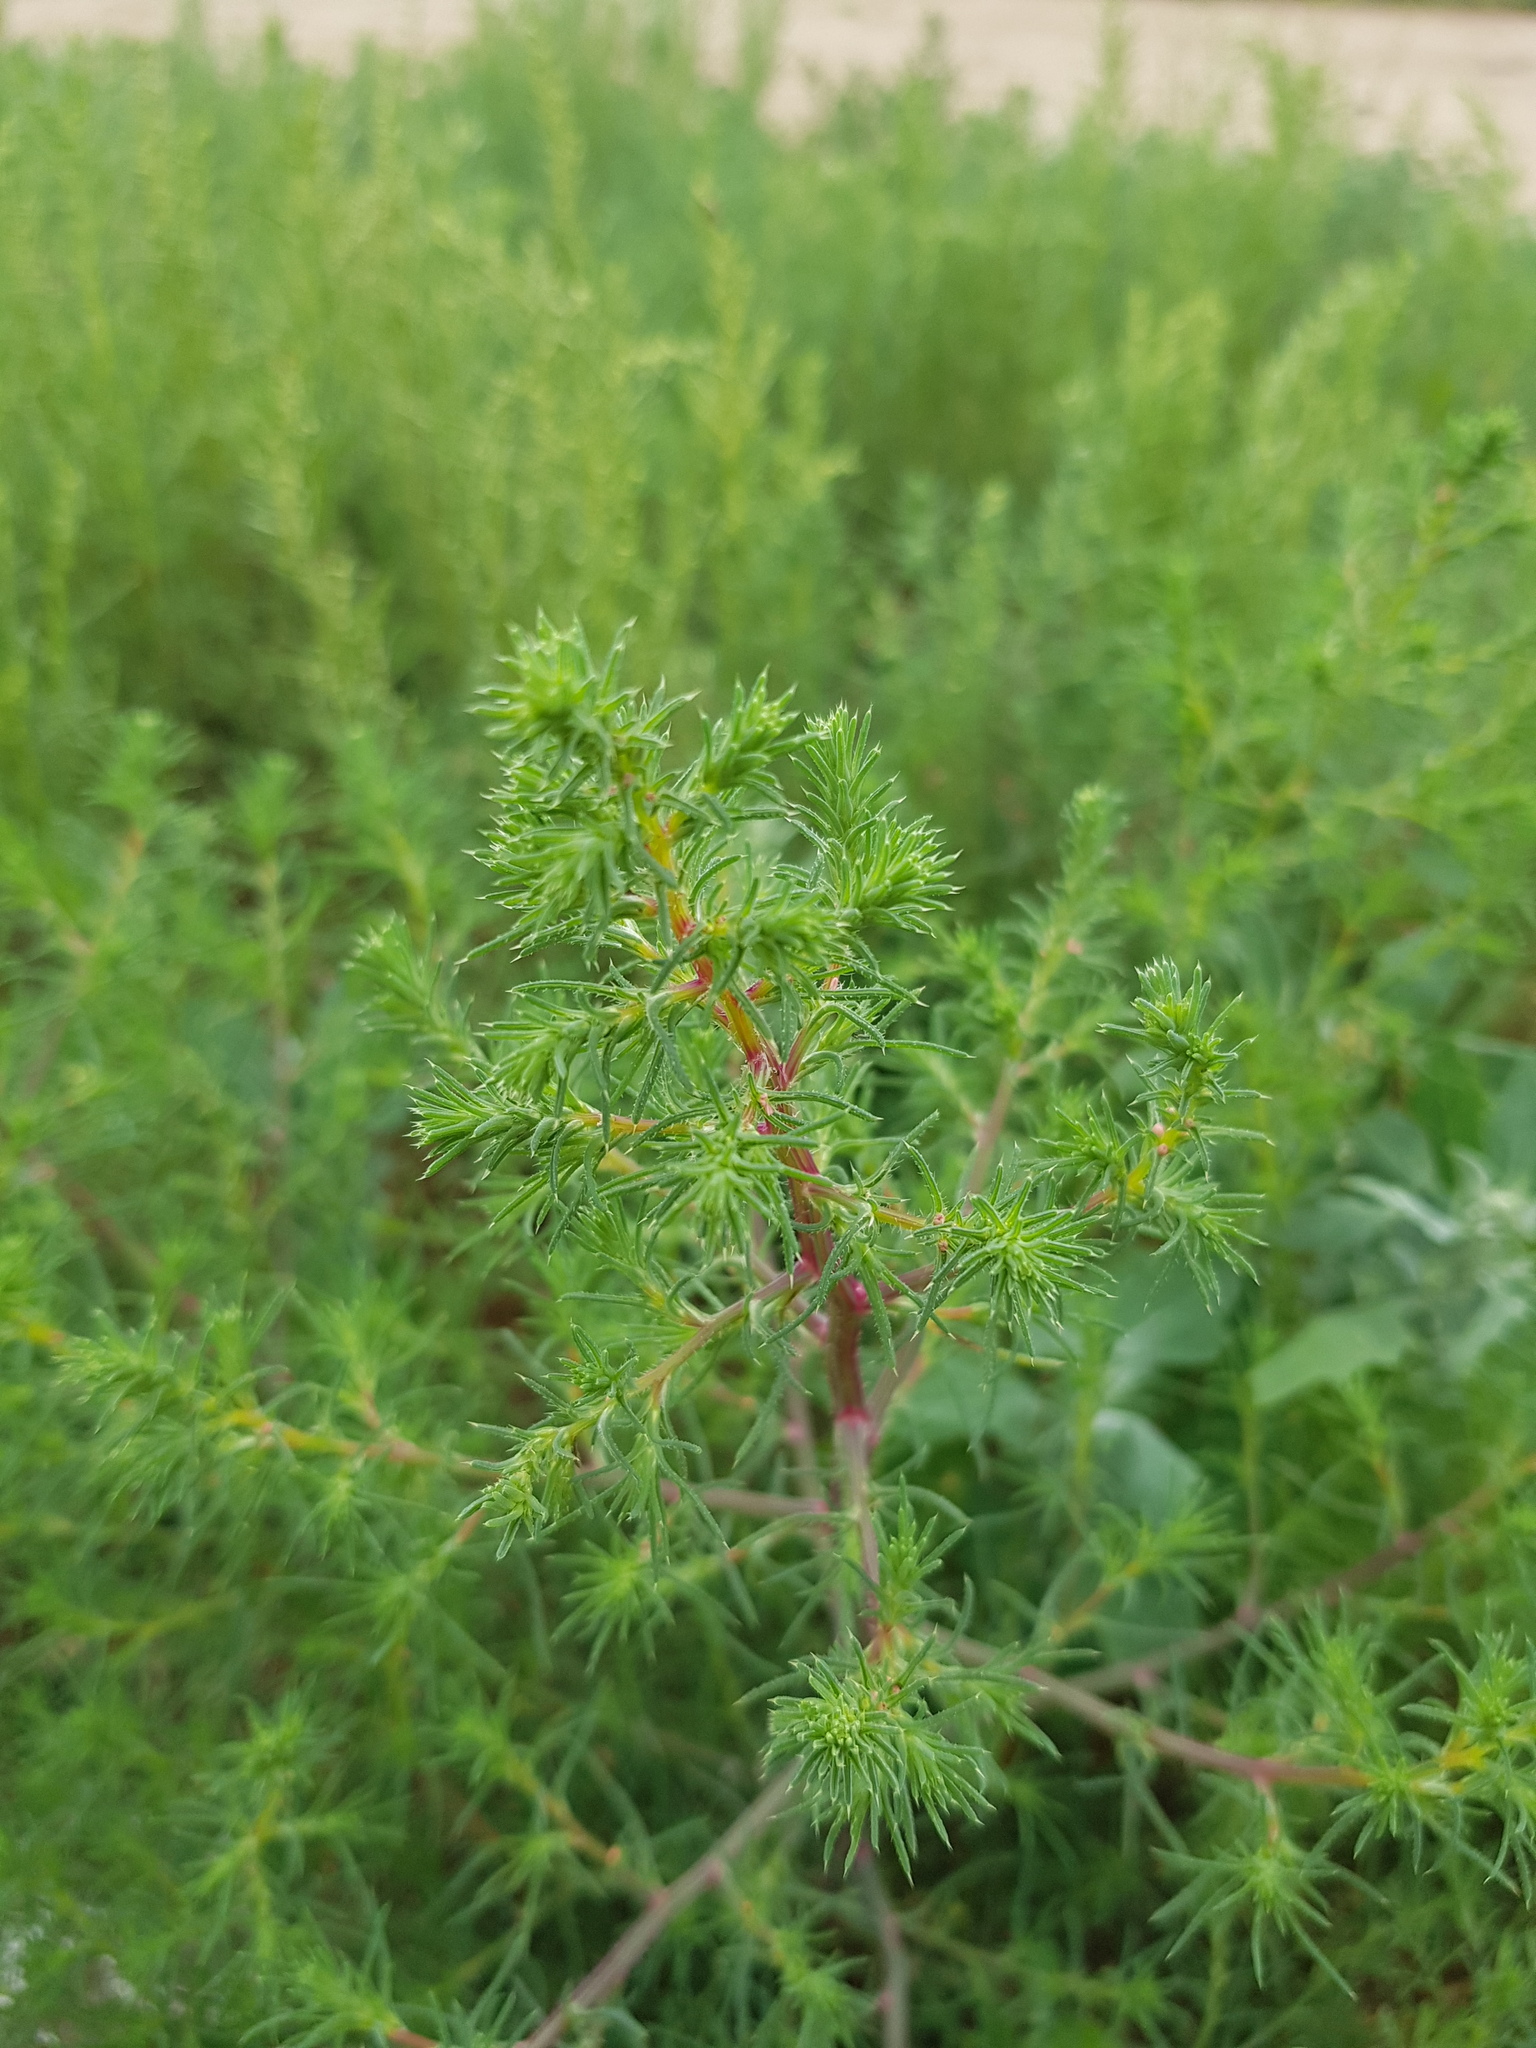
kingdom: Plantae
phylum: Tracheophyta
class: Magnoliopsida
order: Caryophyllales
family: Amaranthaceae
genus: Salsola
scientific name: Salsola collina
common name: Tumbleweed
